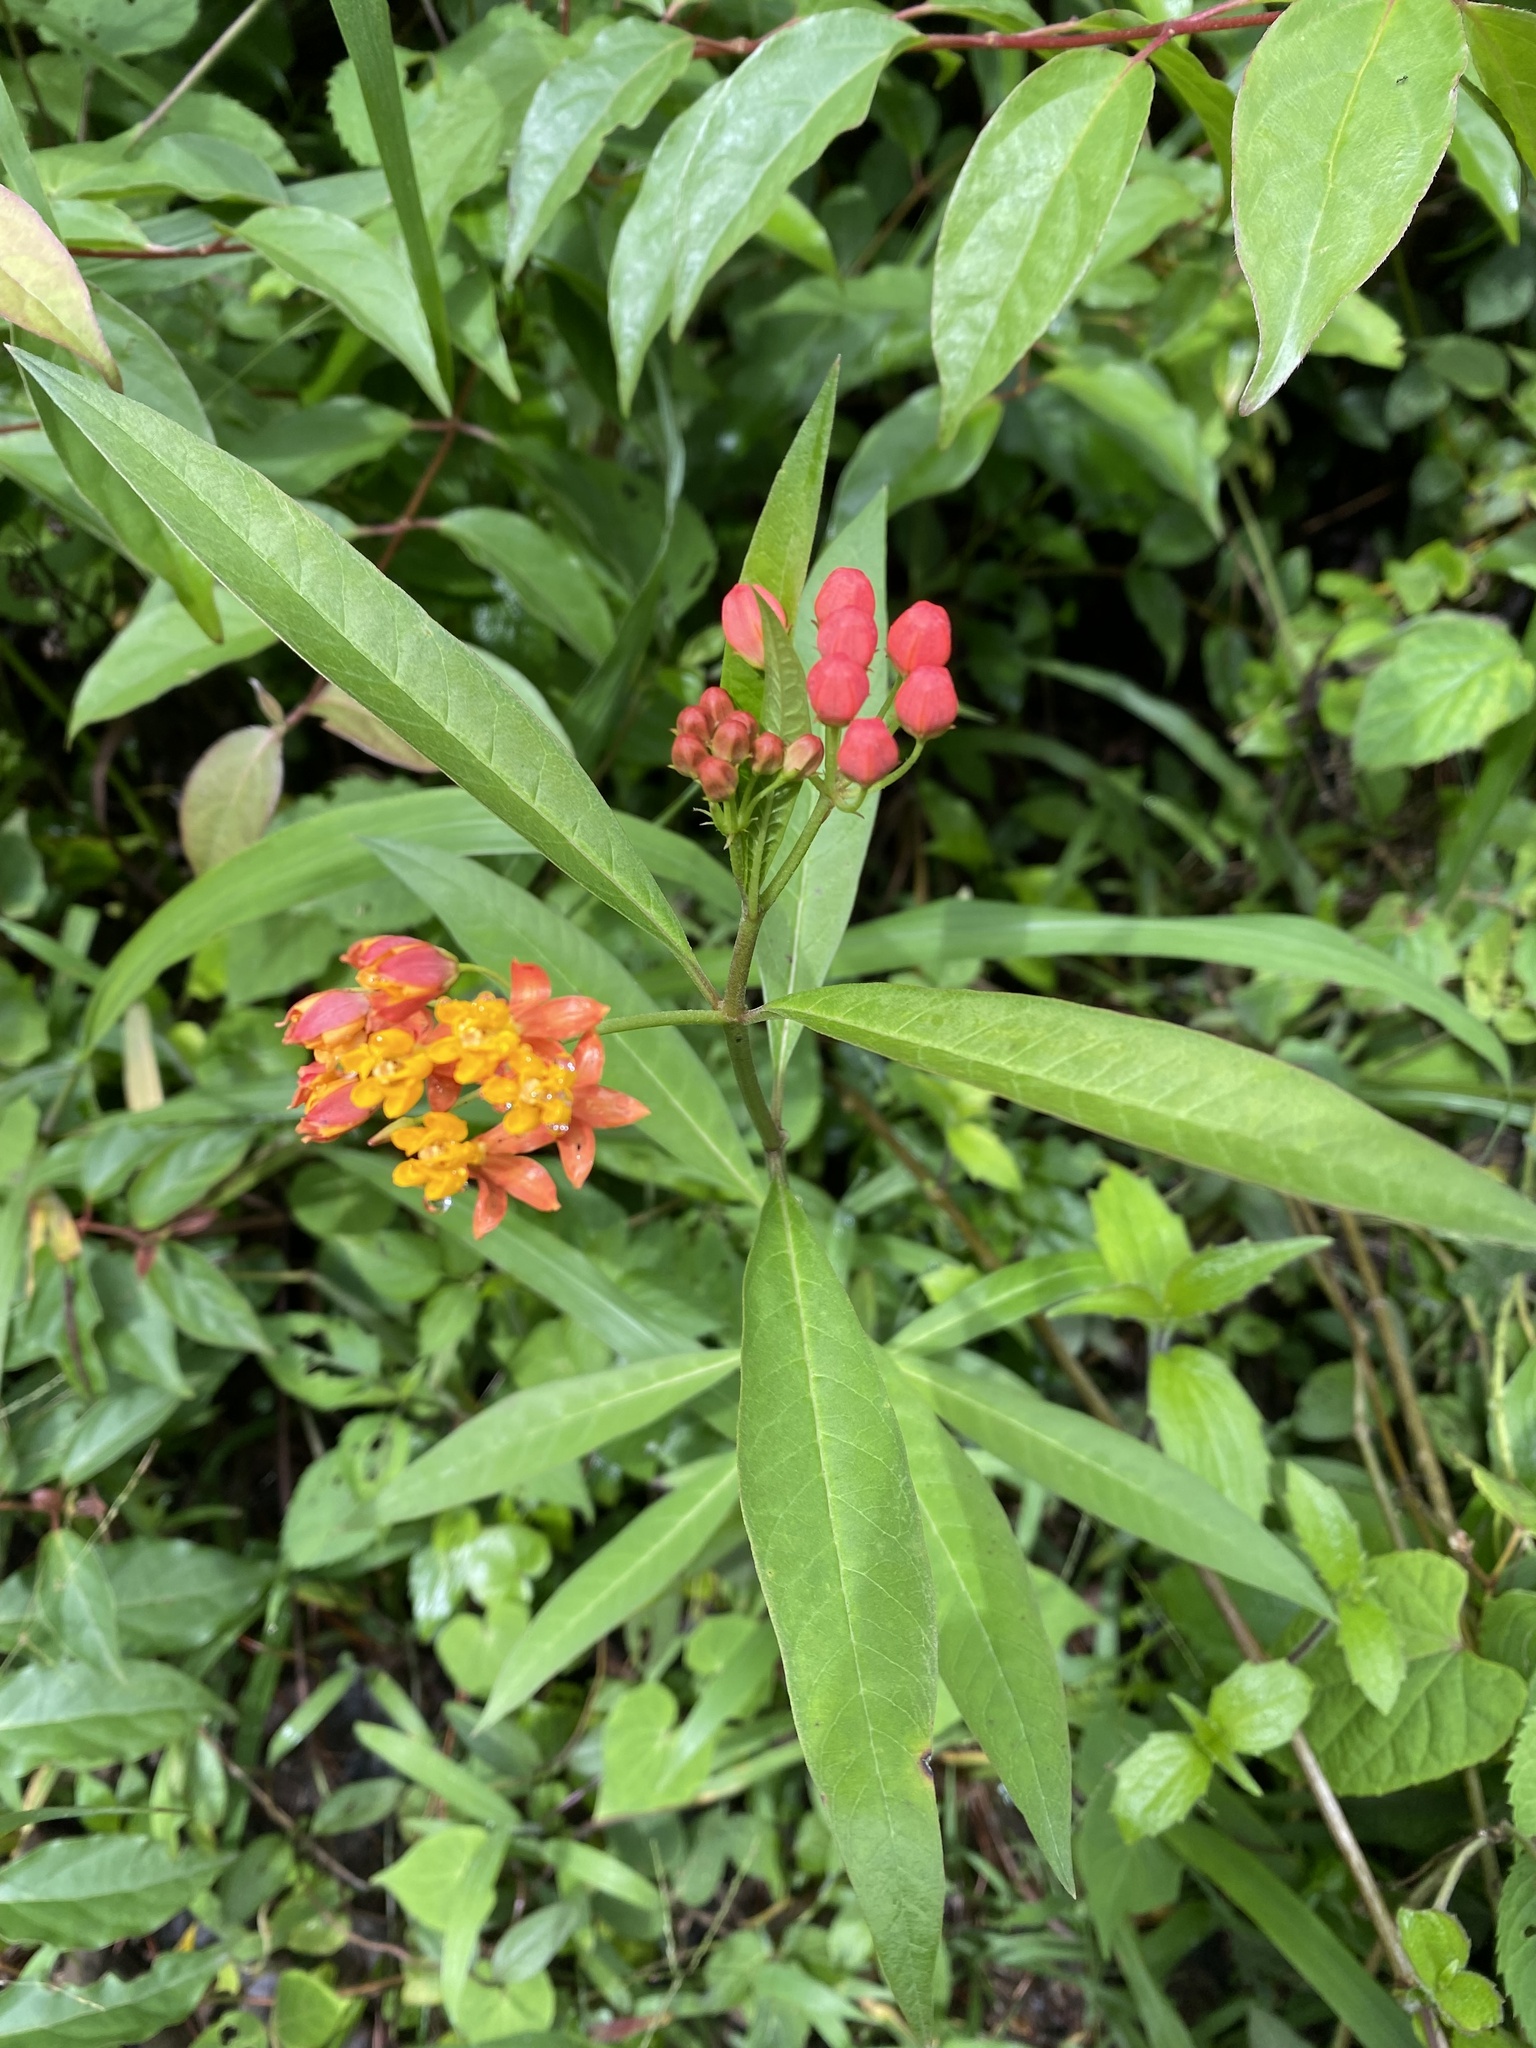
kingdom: Plantae
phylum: Tracheophyta
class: Magnoliopsida
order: Gentianales
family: Apocynaceae
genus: Asclepias
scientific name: Asclepias curassavica
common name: Bloodflower
